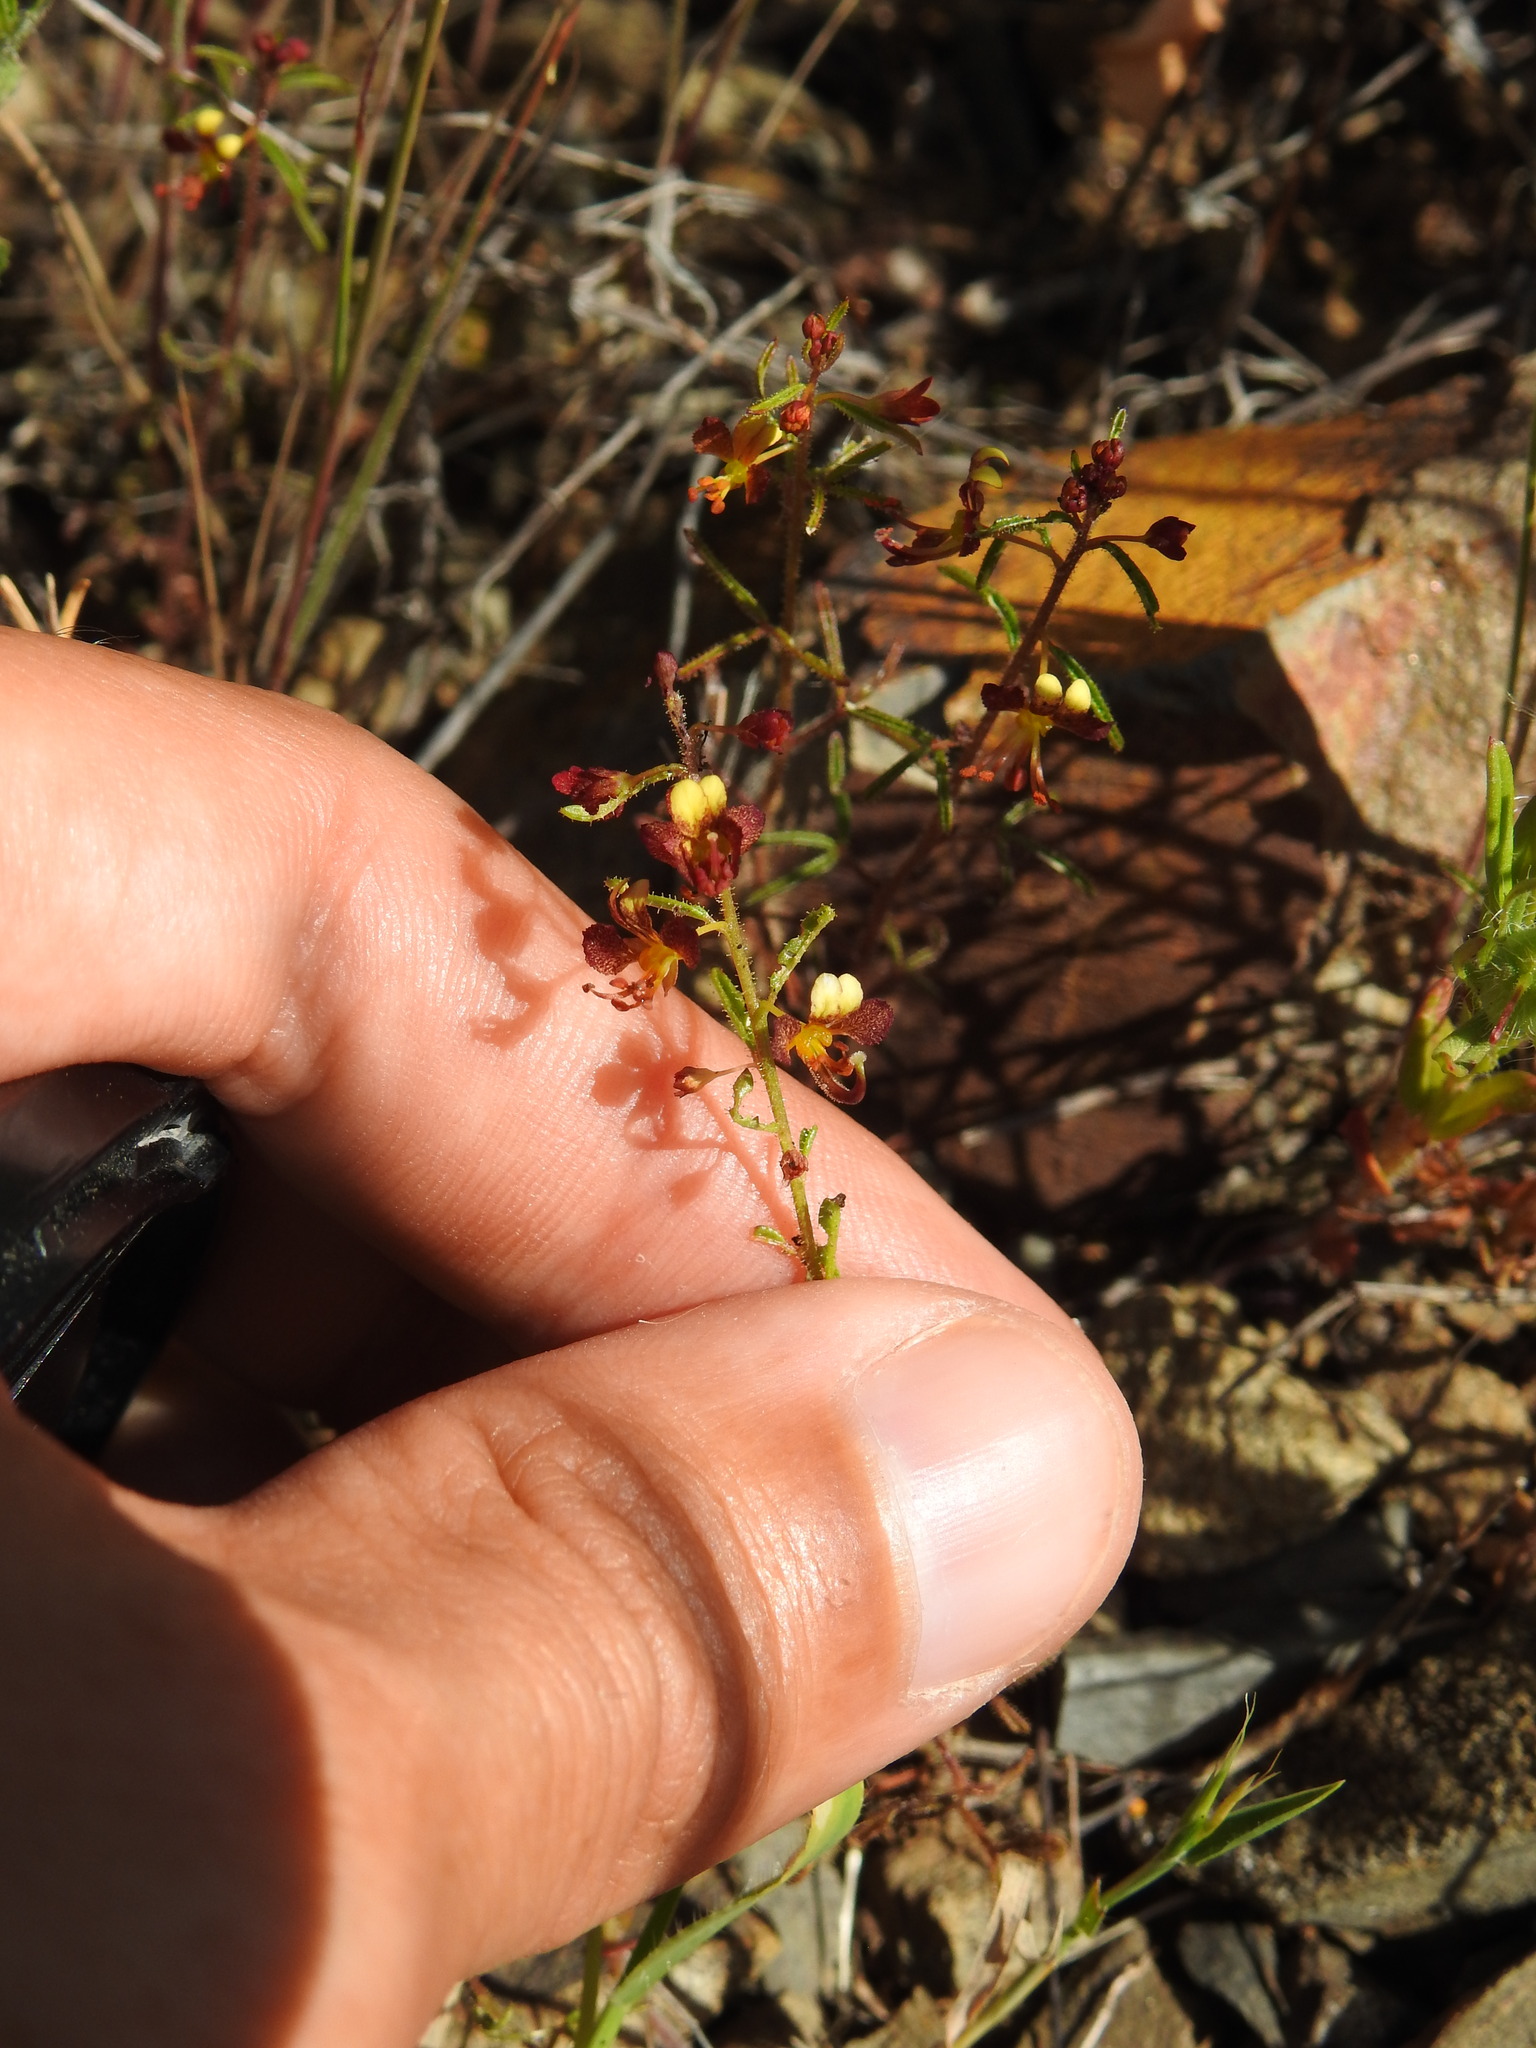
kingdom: Plantae
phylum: Tracheophyta
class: Magnoliopsida
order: Brassicales
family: Cleomaceae
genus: Cleome
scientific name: Cleome violacea
